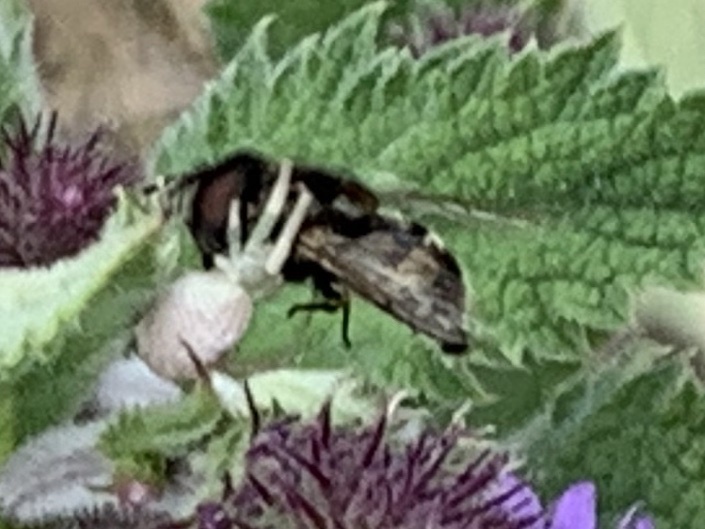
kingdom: Animalia
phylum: Arthropoda
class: Insecta
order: Diptera
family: Syrphidae
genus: Copestylum
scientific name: Copestylum
